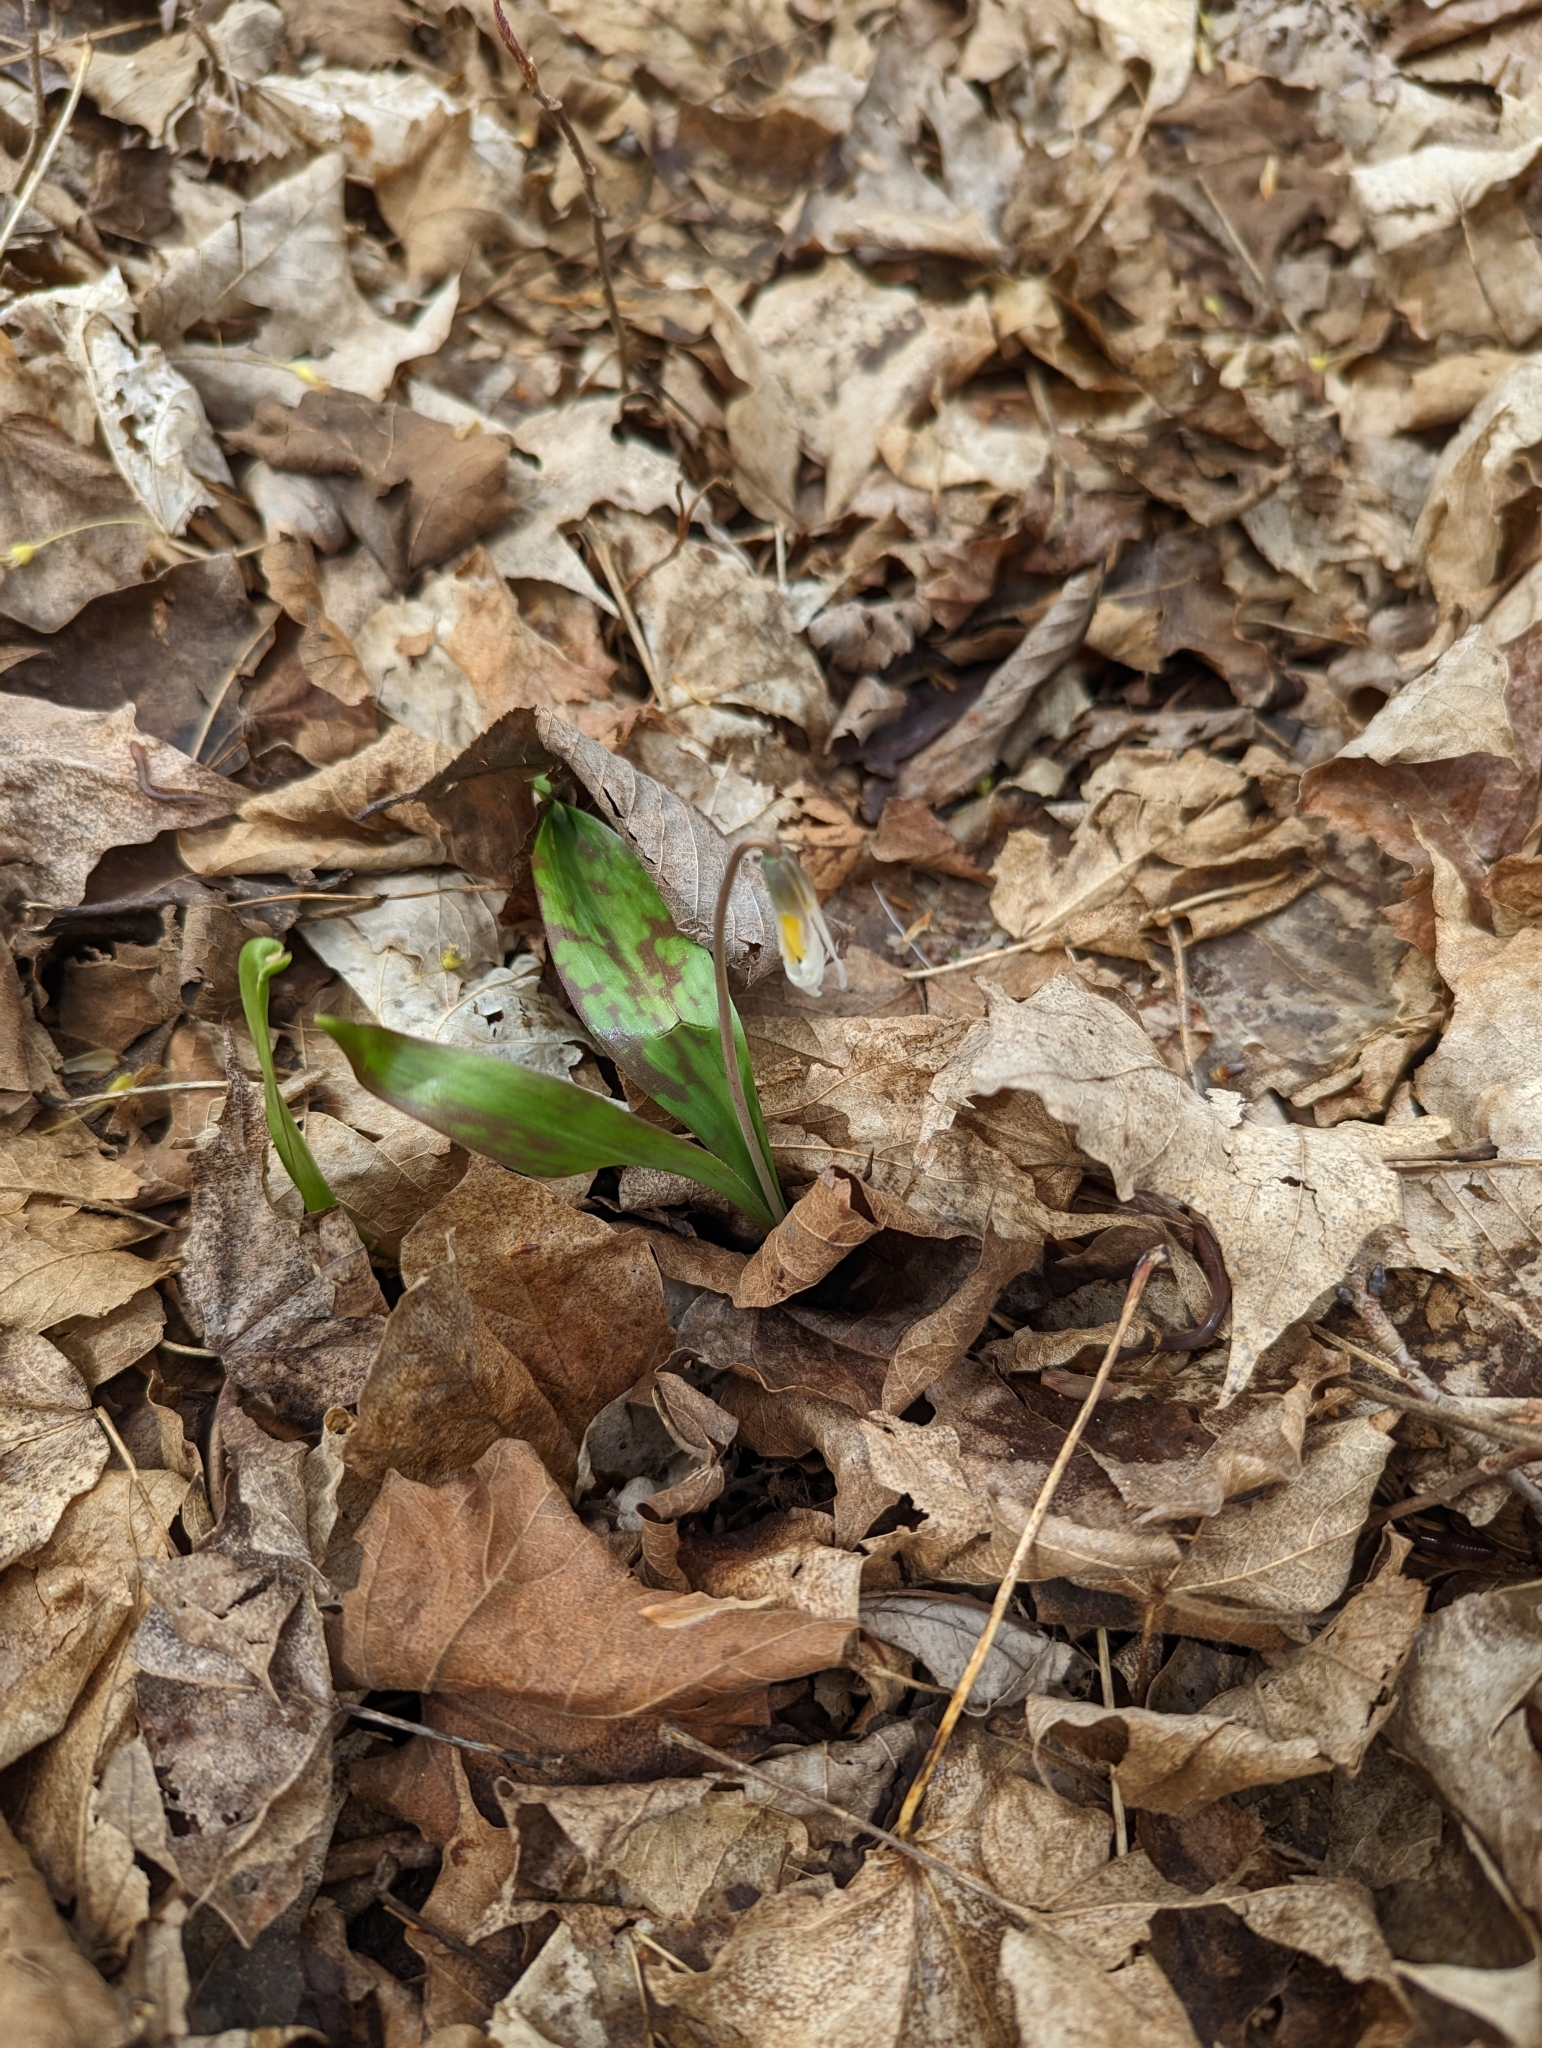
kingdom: Plantae
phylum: Tracheophyta
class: Liliopsida
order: Liliales
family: Liliaceae
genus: Erythronium
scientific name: Erythronium albidum
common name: White trout-lily
